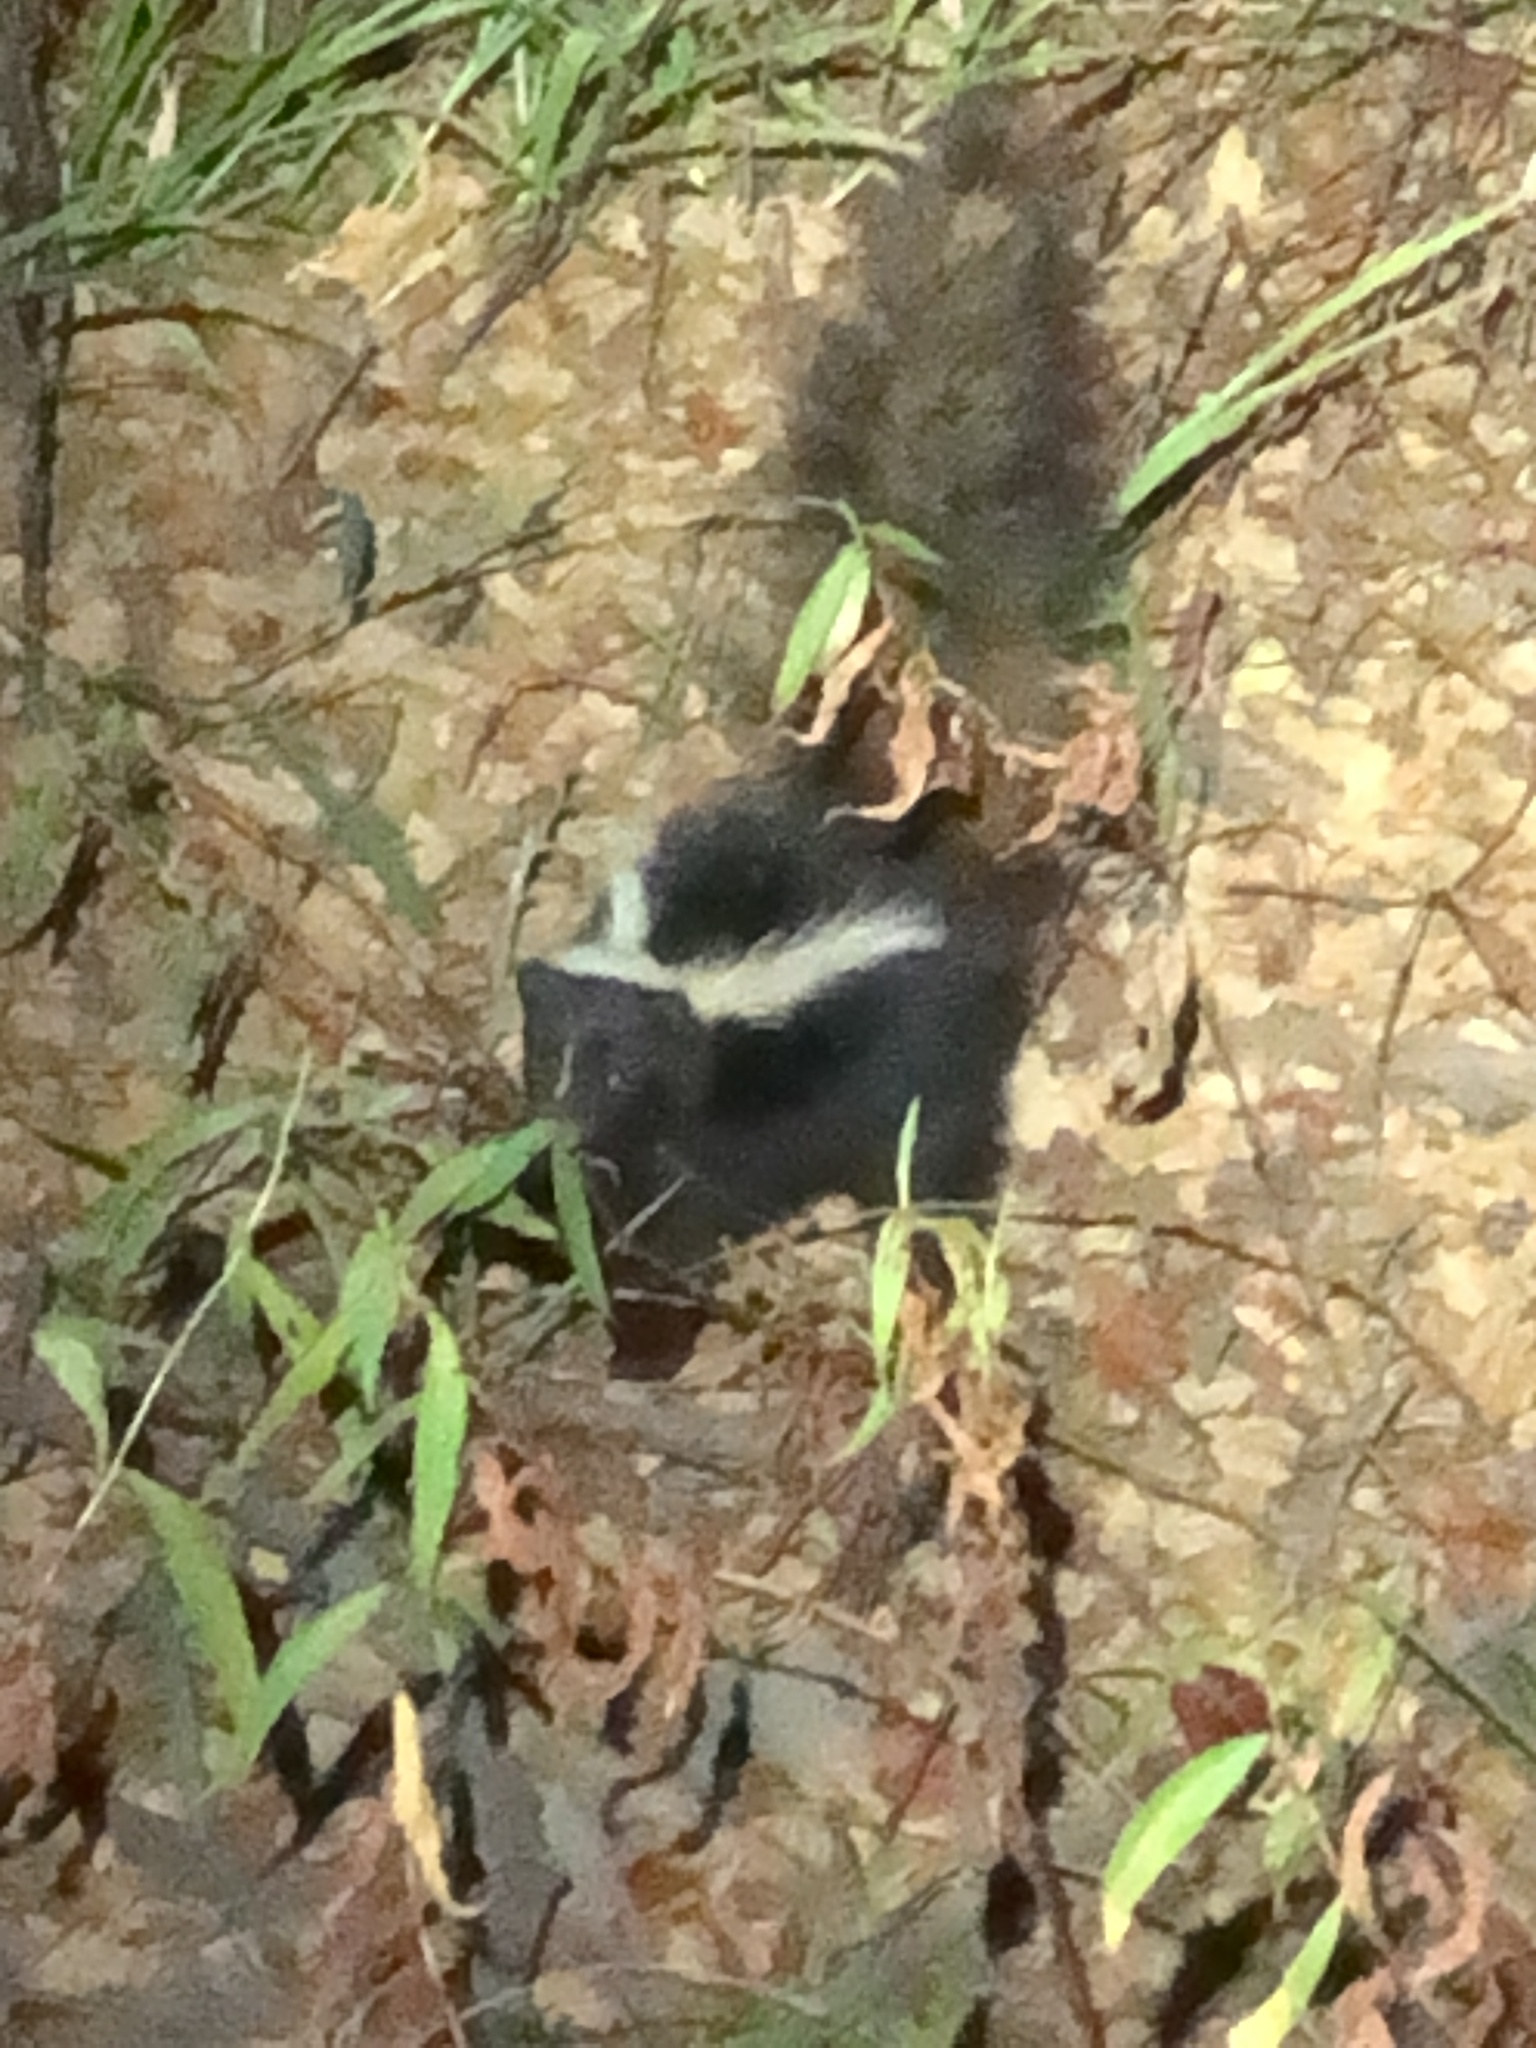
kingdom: Animalia
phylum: Chordata
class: Mammalia
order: Carnivora
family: Mephitidae
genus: Mephitis
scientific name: Mephitis mephitis
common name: Striped skunk
